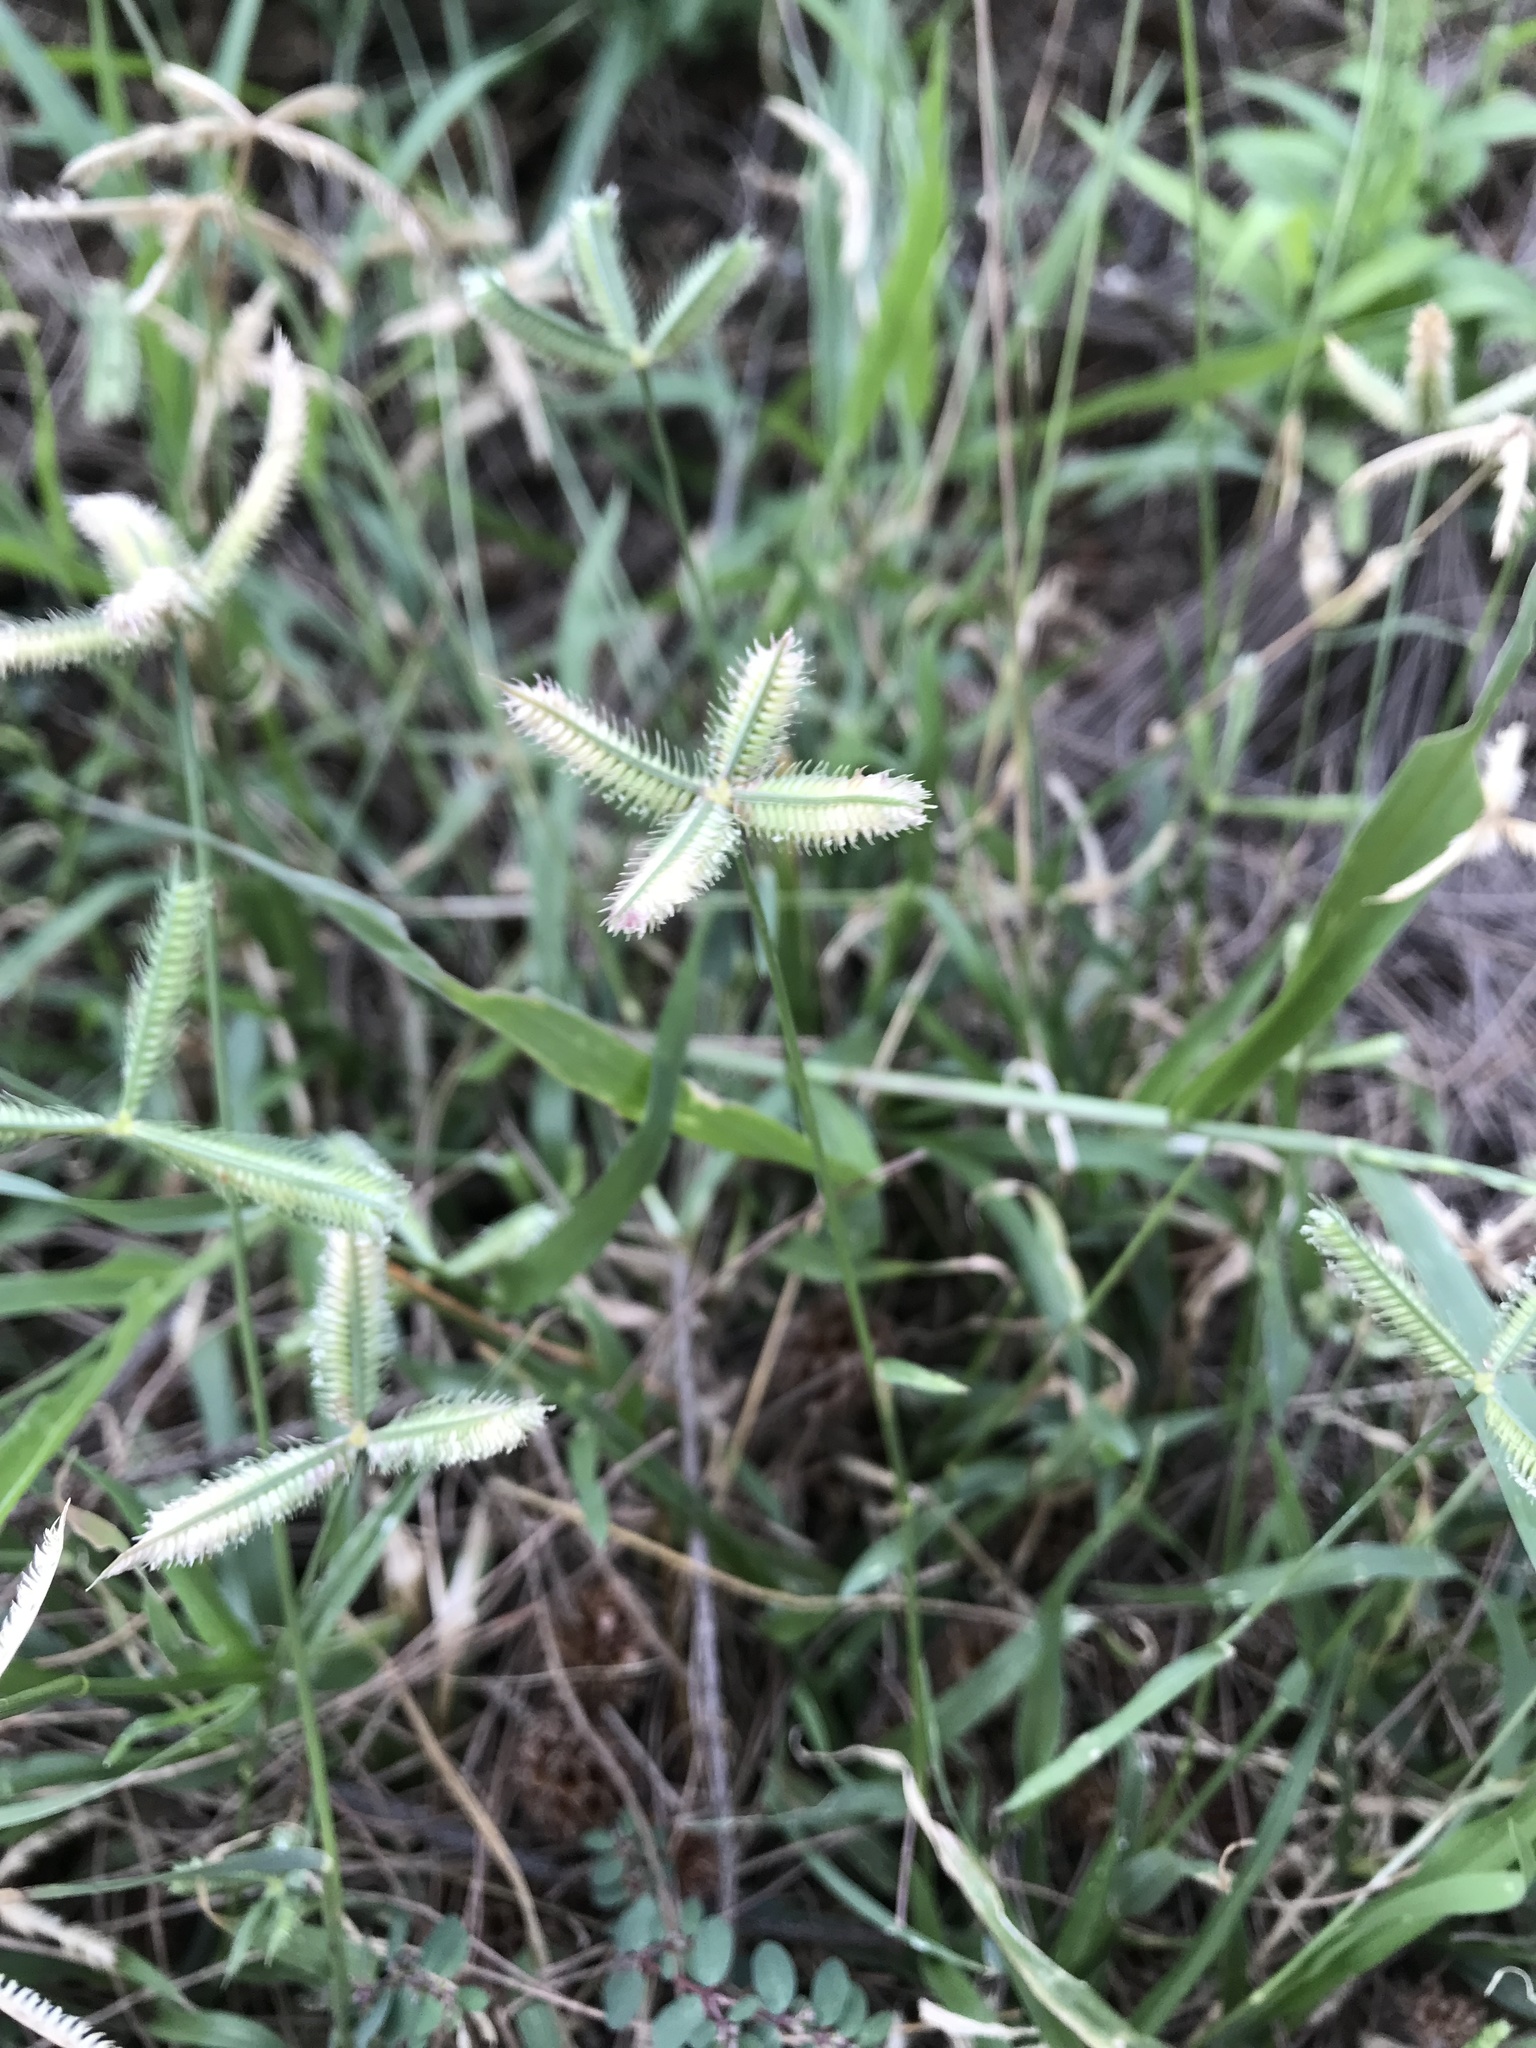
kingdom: Plantae
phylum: Tracheophyta
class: Liliopsida
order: Poales
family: Poaceae
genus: Dactyloctenium
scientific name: Dactyloctenium aegyptium
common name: Egyptian grass
